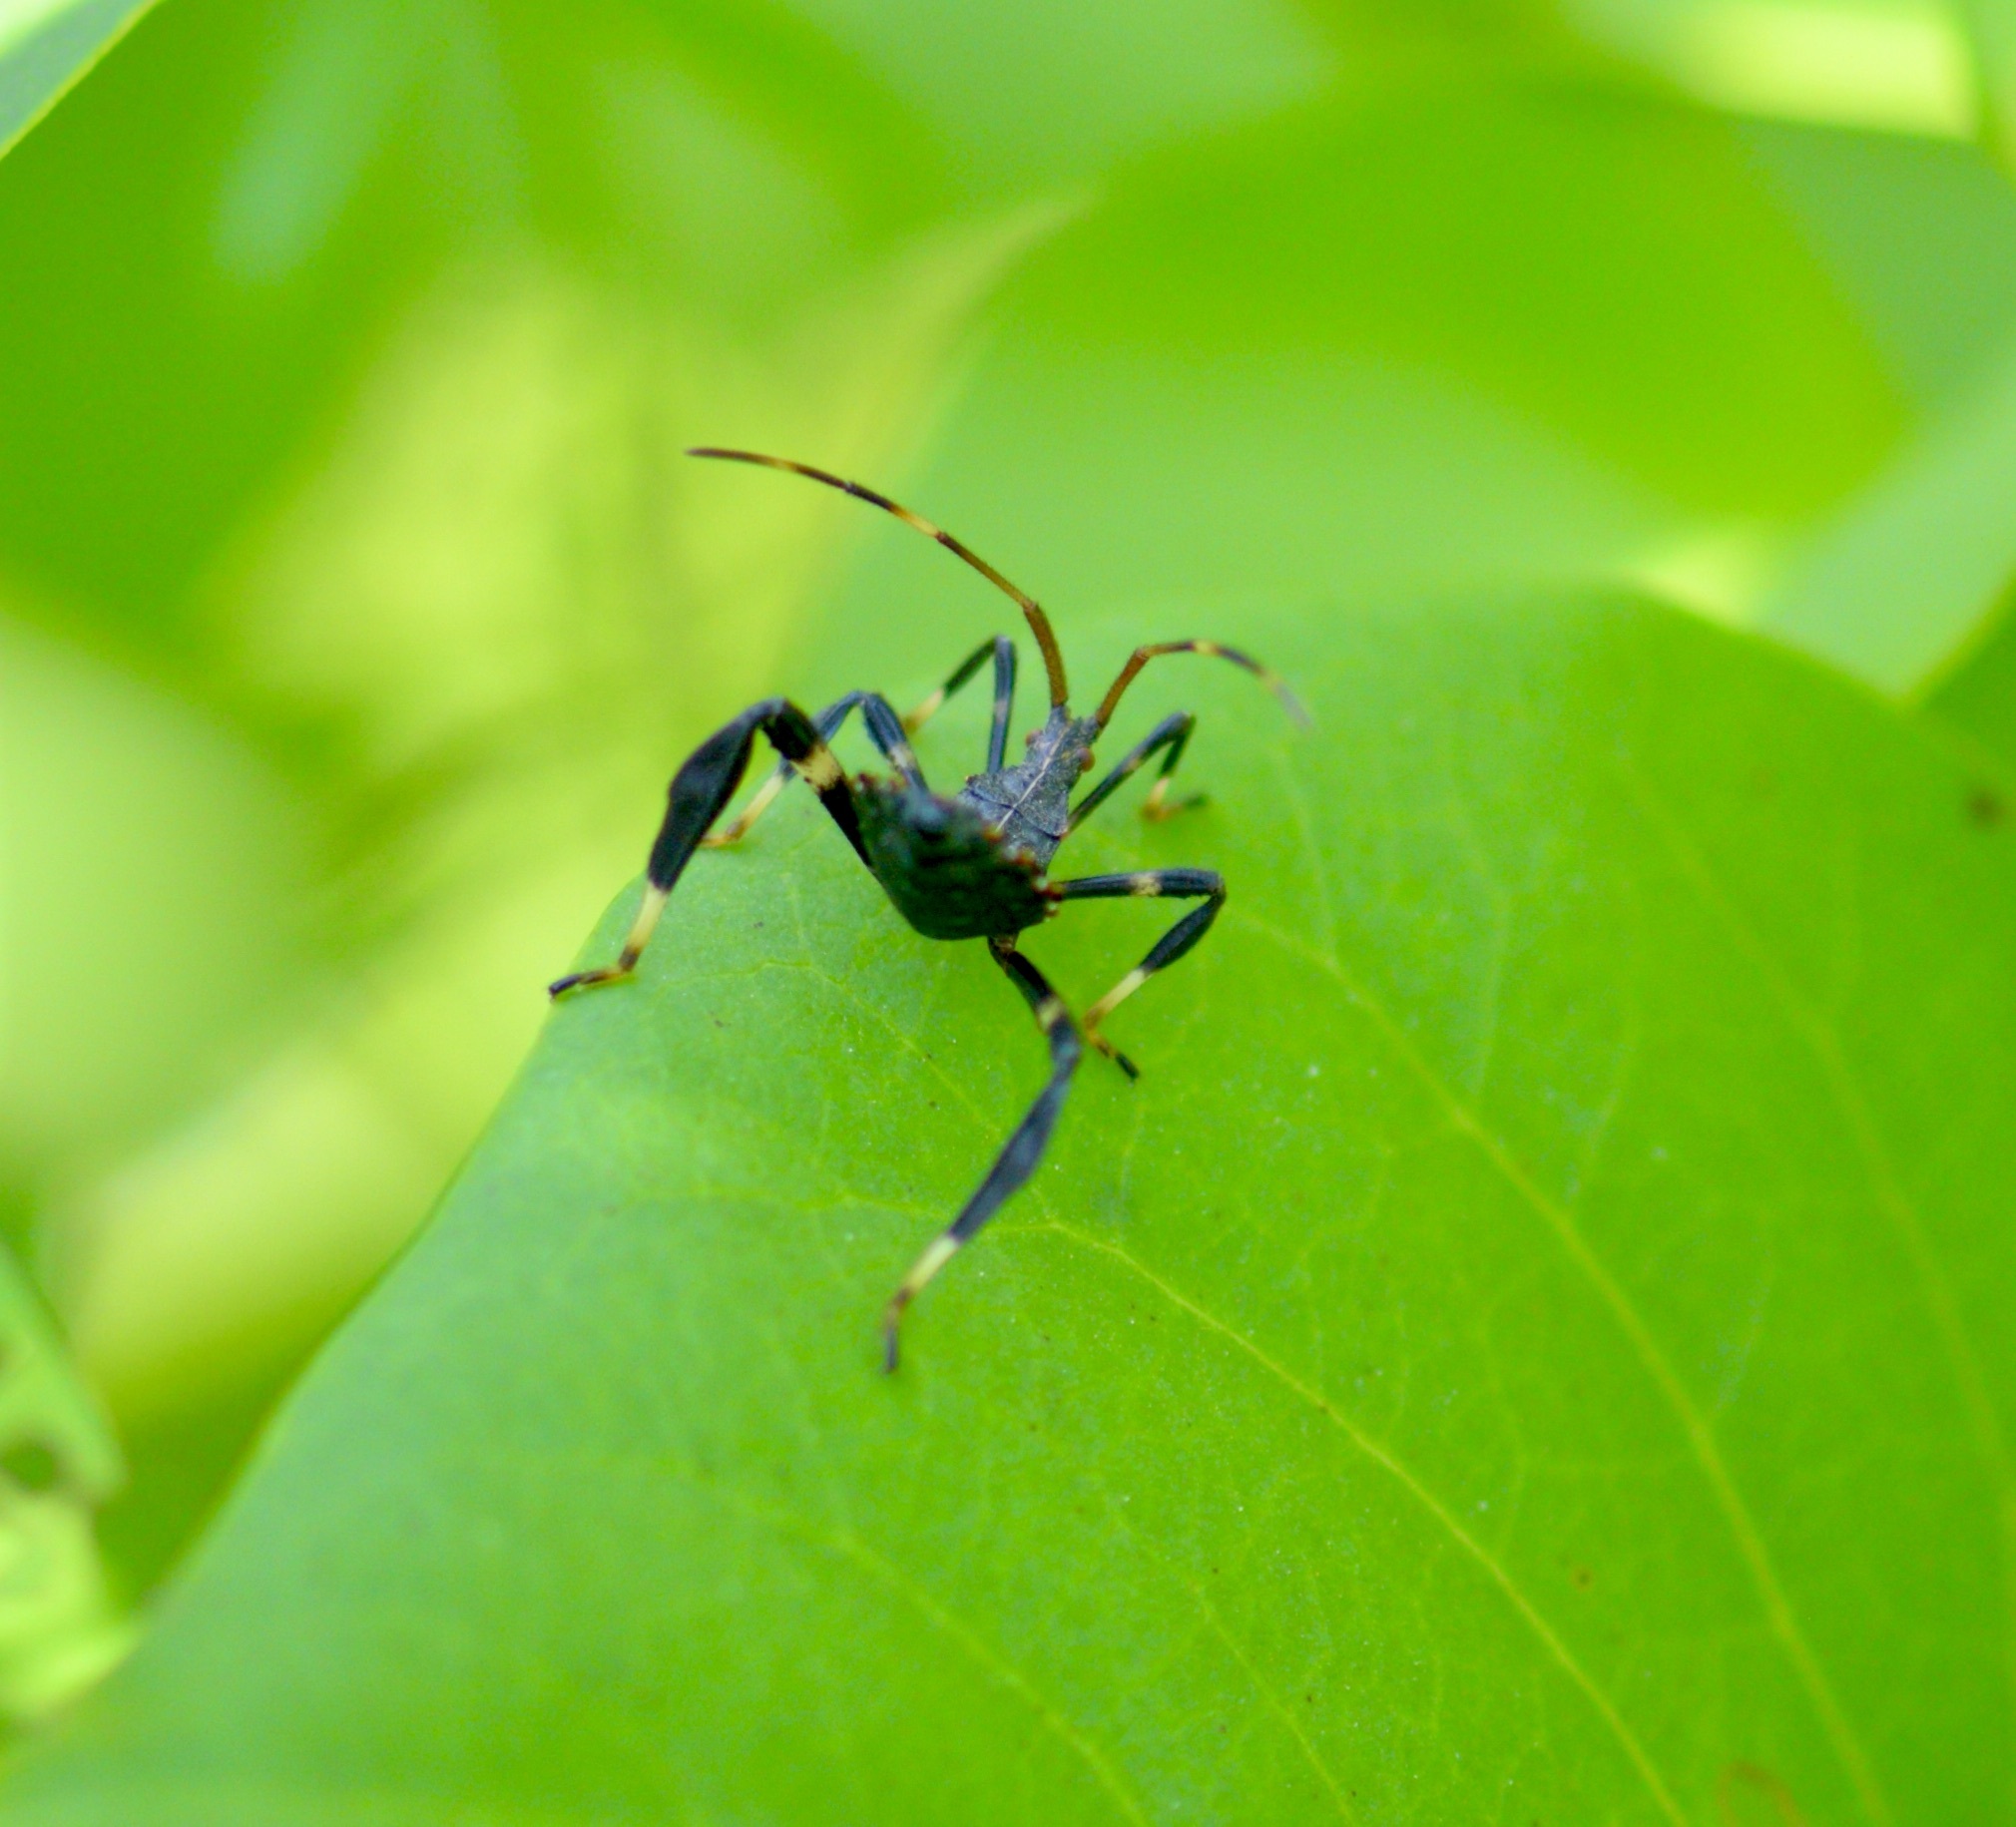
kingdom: Animalia
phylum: Arthropoda
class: Insecta
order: Hemiptera
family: Coreidae
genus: Acanthocephala
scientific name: Acanthocephala terminalis
